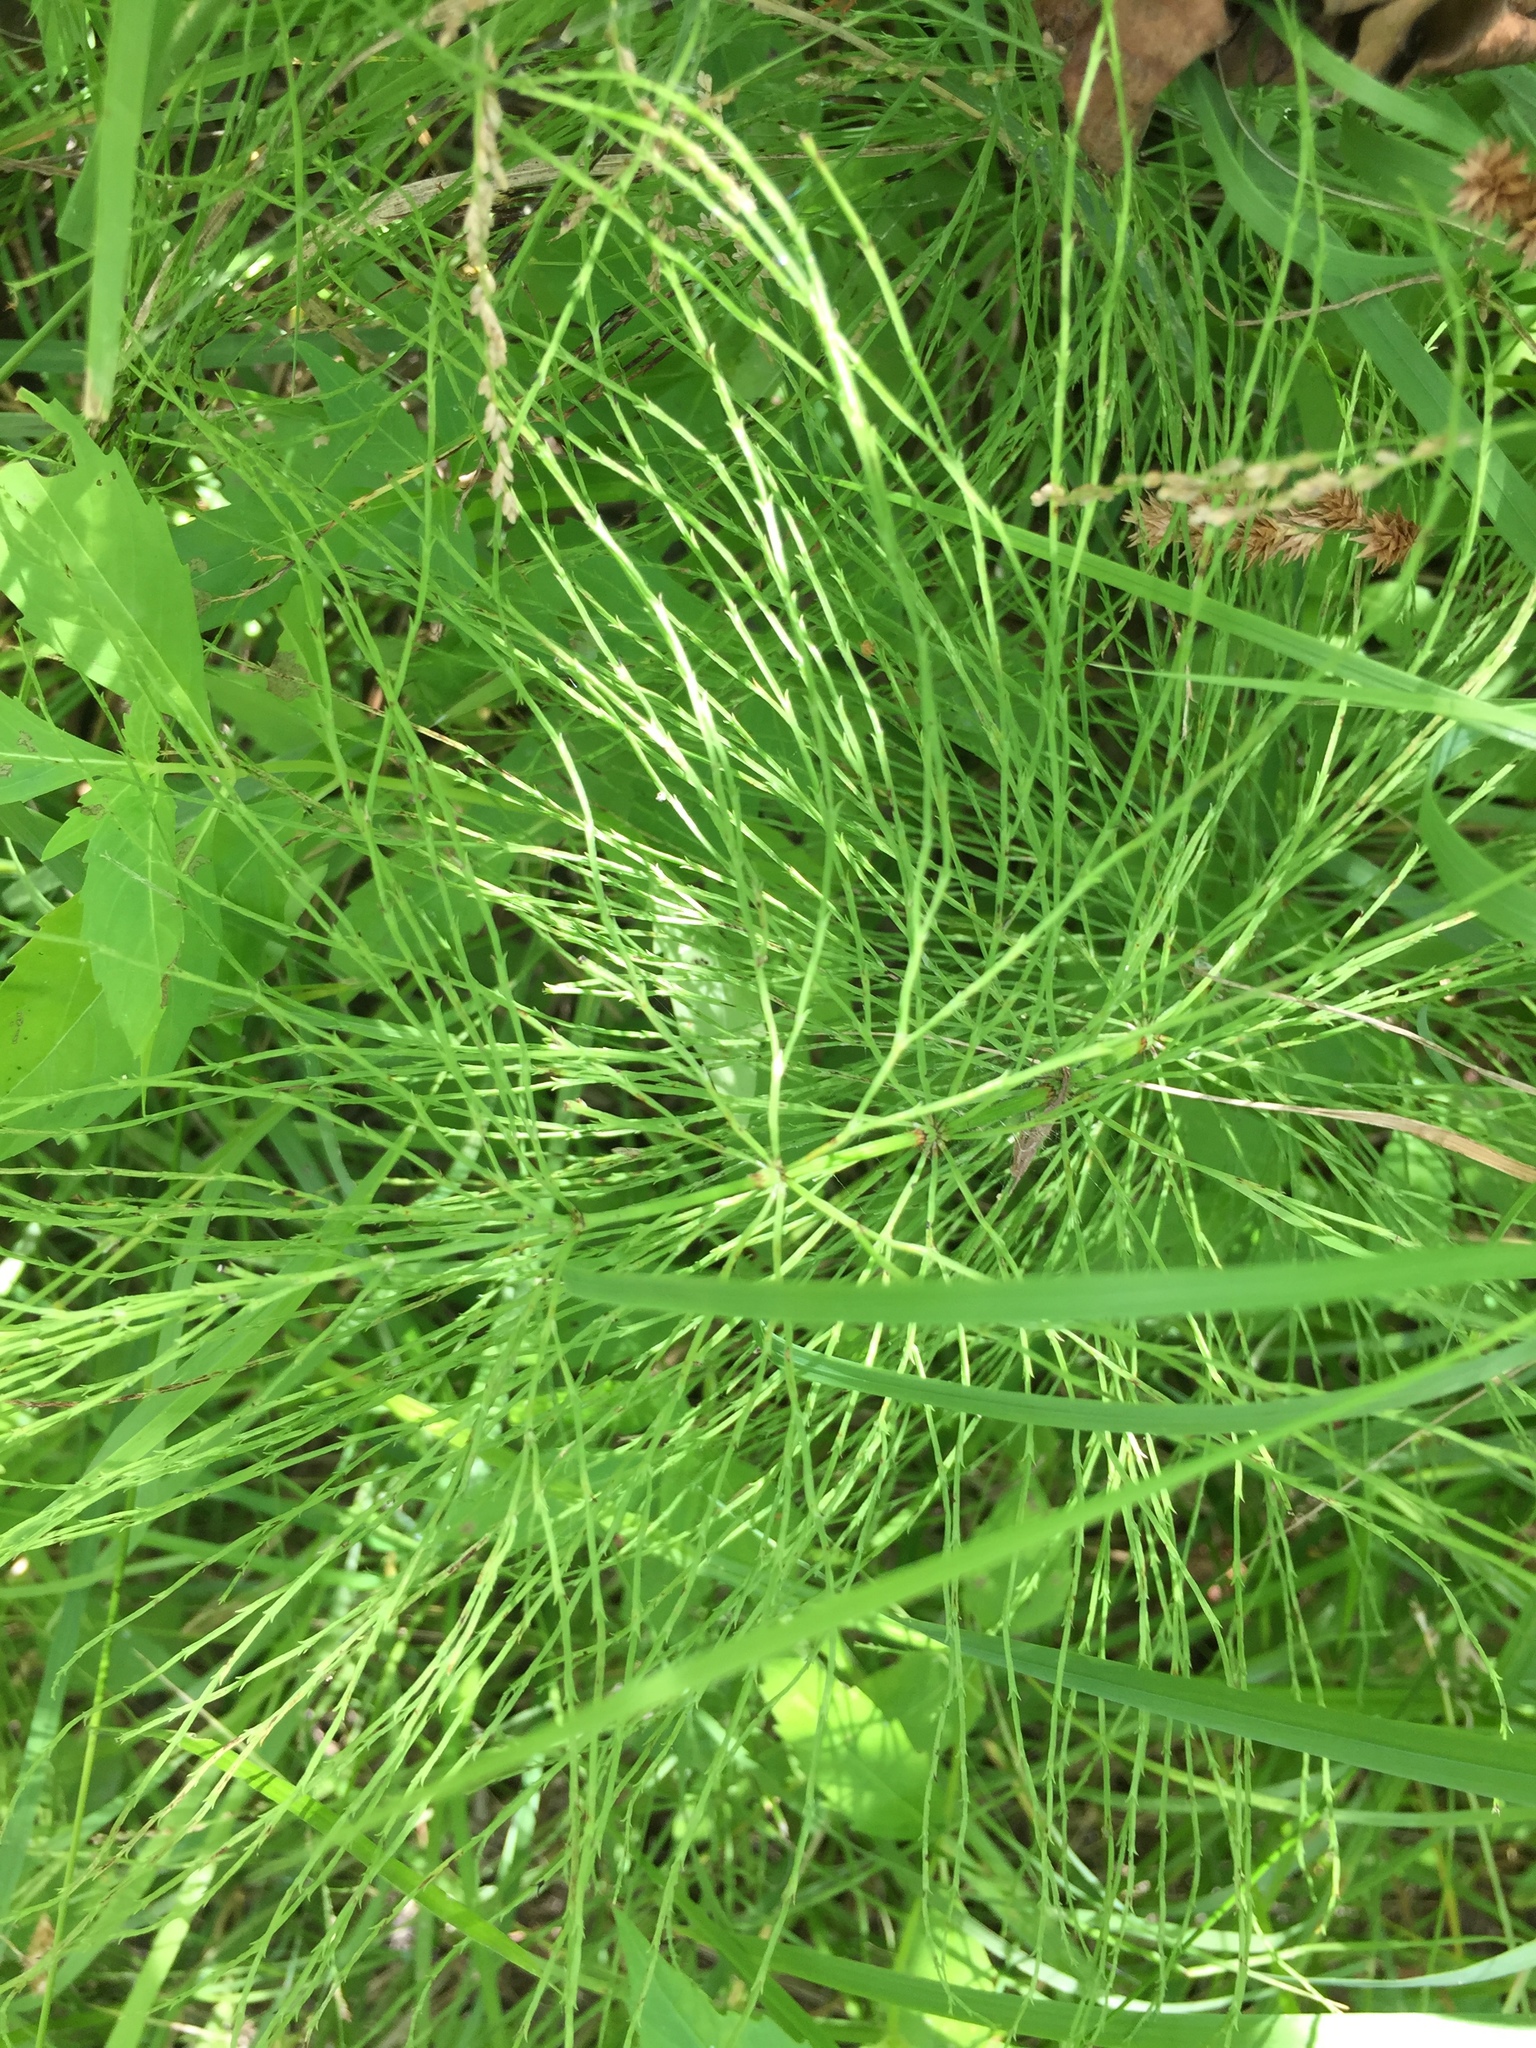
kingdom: Plantae
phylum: Tracheophyta
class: Polypodiopsida
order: Equisetales
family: Equisetaceae
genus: Equisetum
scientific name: Equisetum sylvaticum
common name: Wood horsetail
